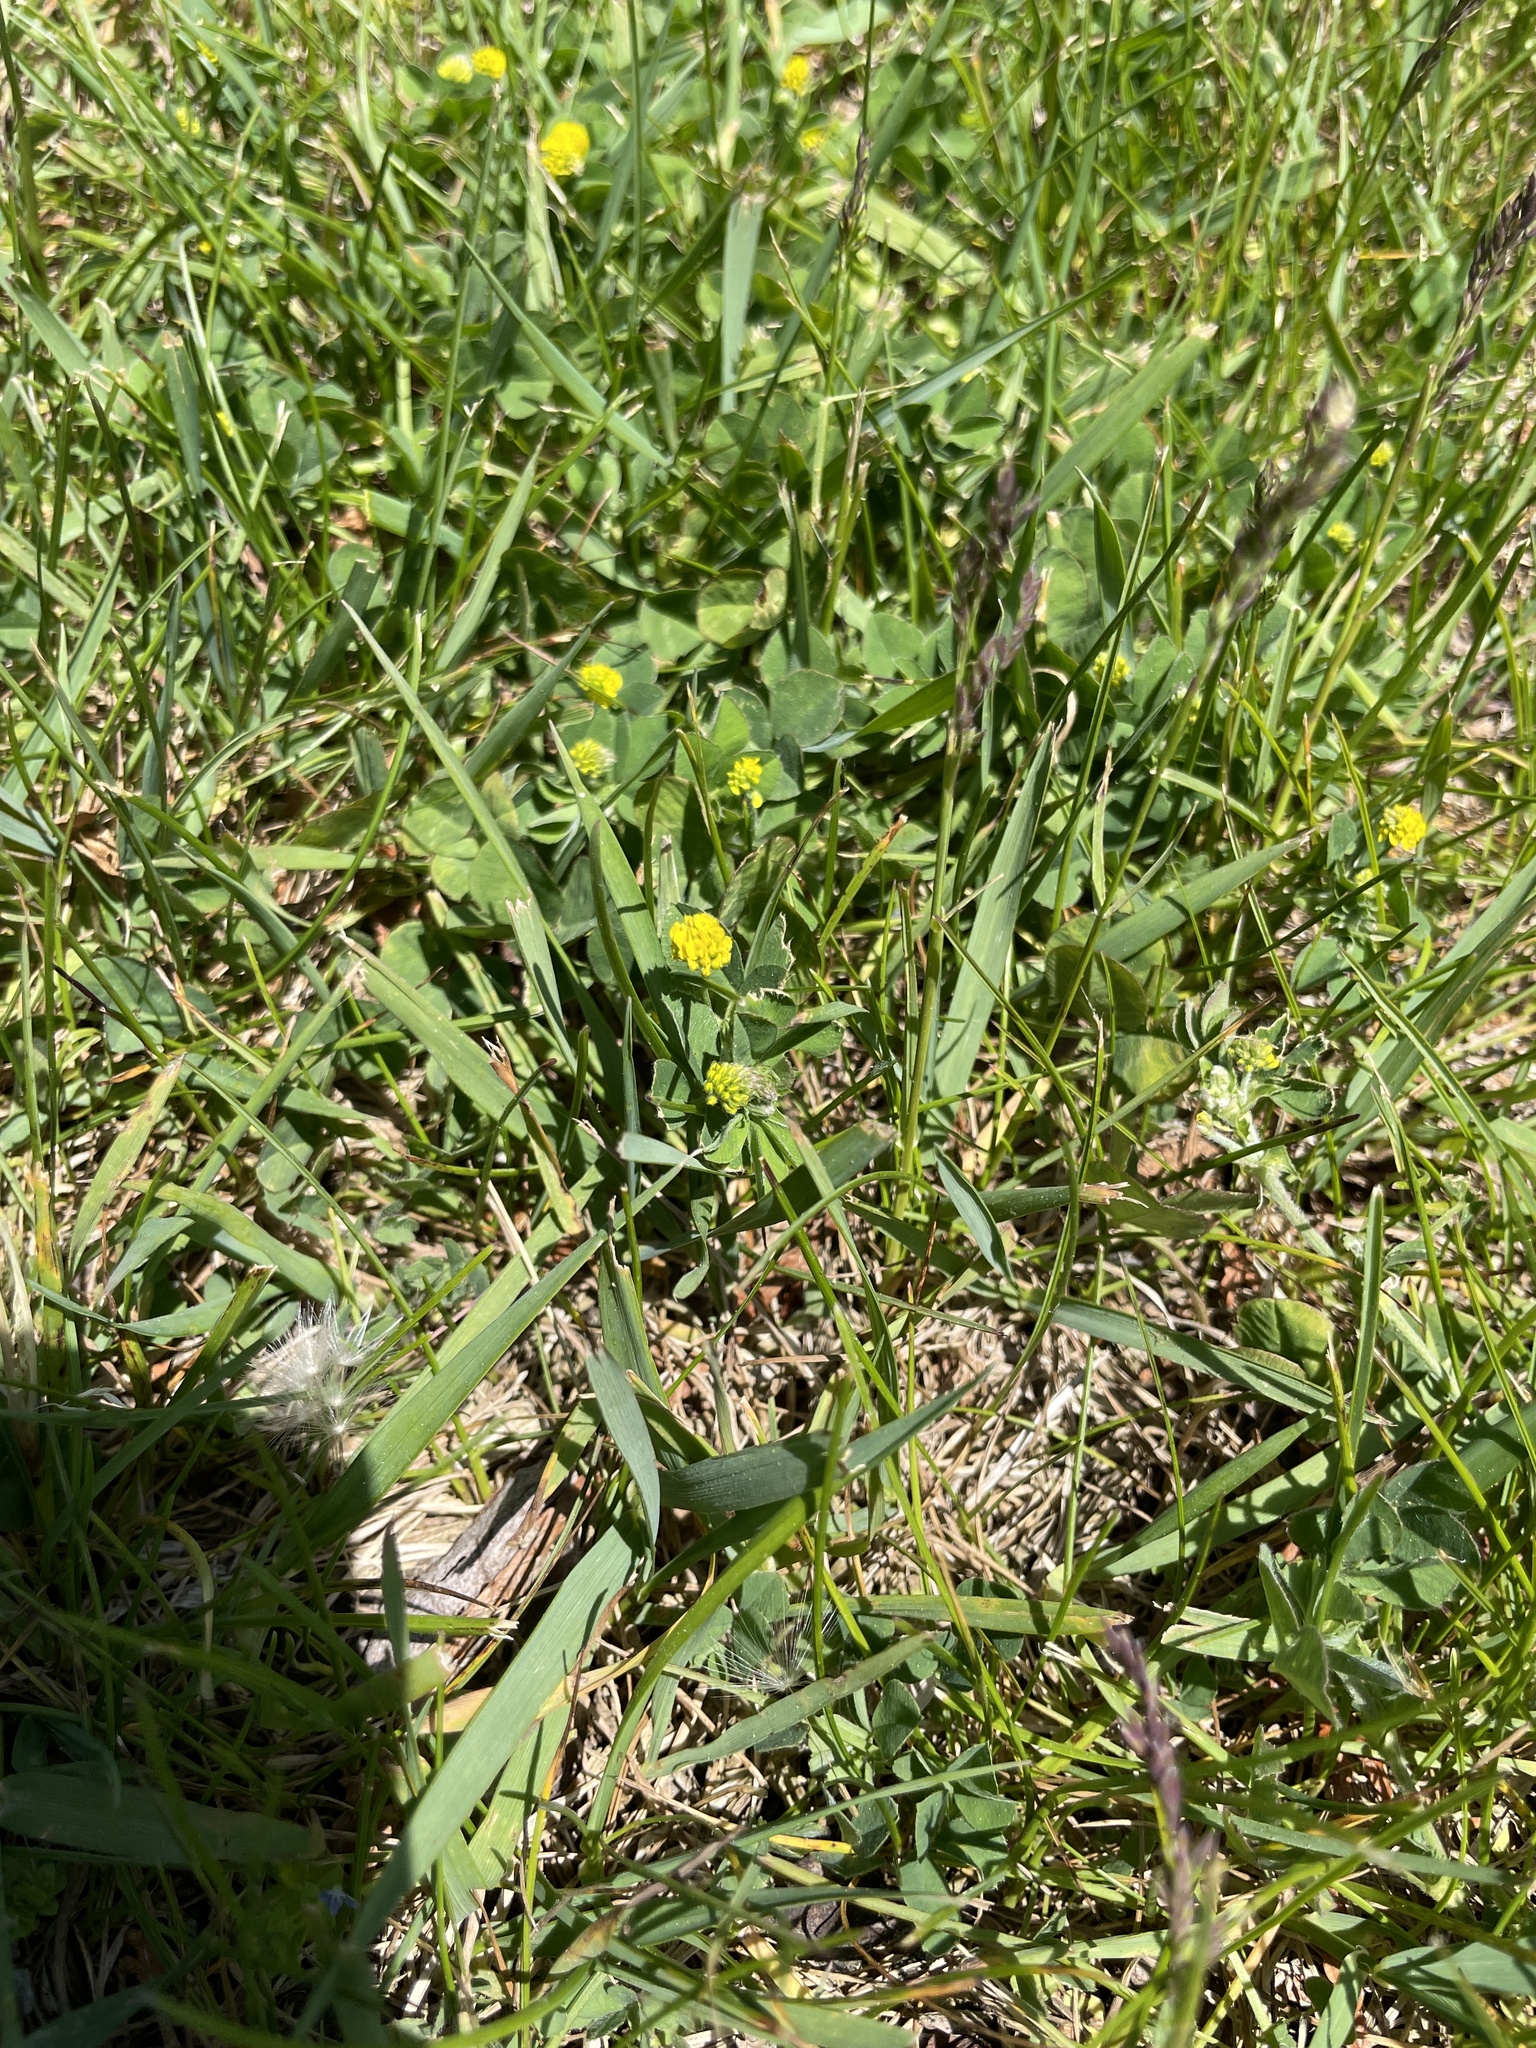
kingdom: Plantae
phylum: Tracheophyta
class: Magnoliopsida
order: Fabales
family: Fabaceae
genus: Medicago
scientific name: Medicago lupulina
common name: Black medick
